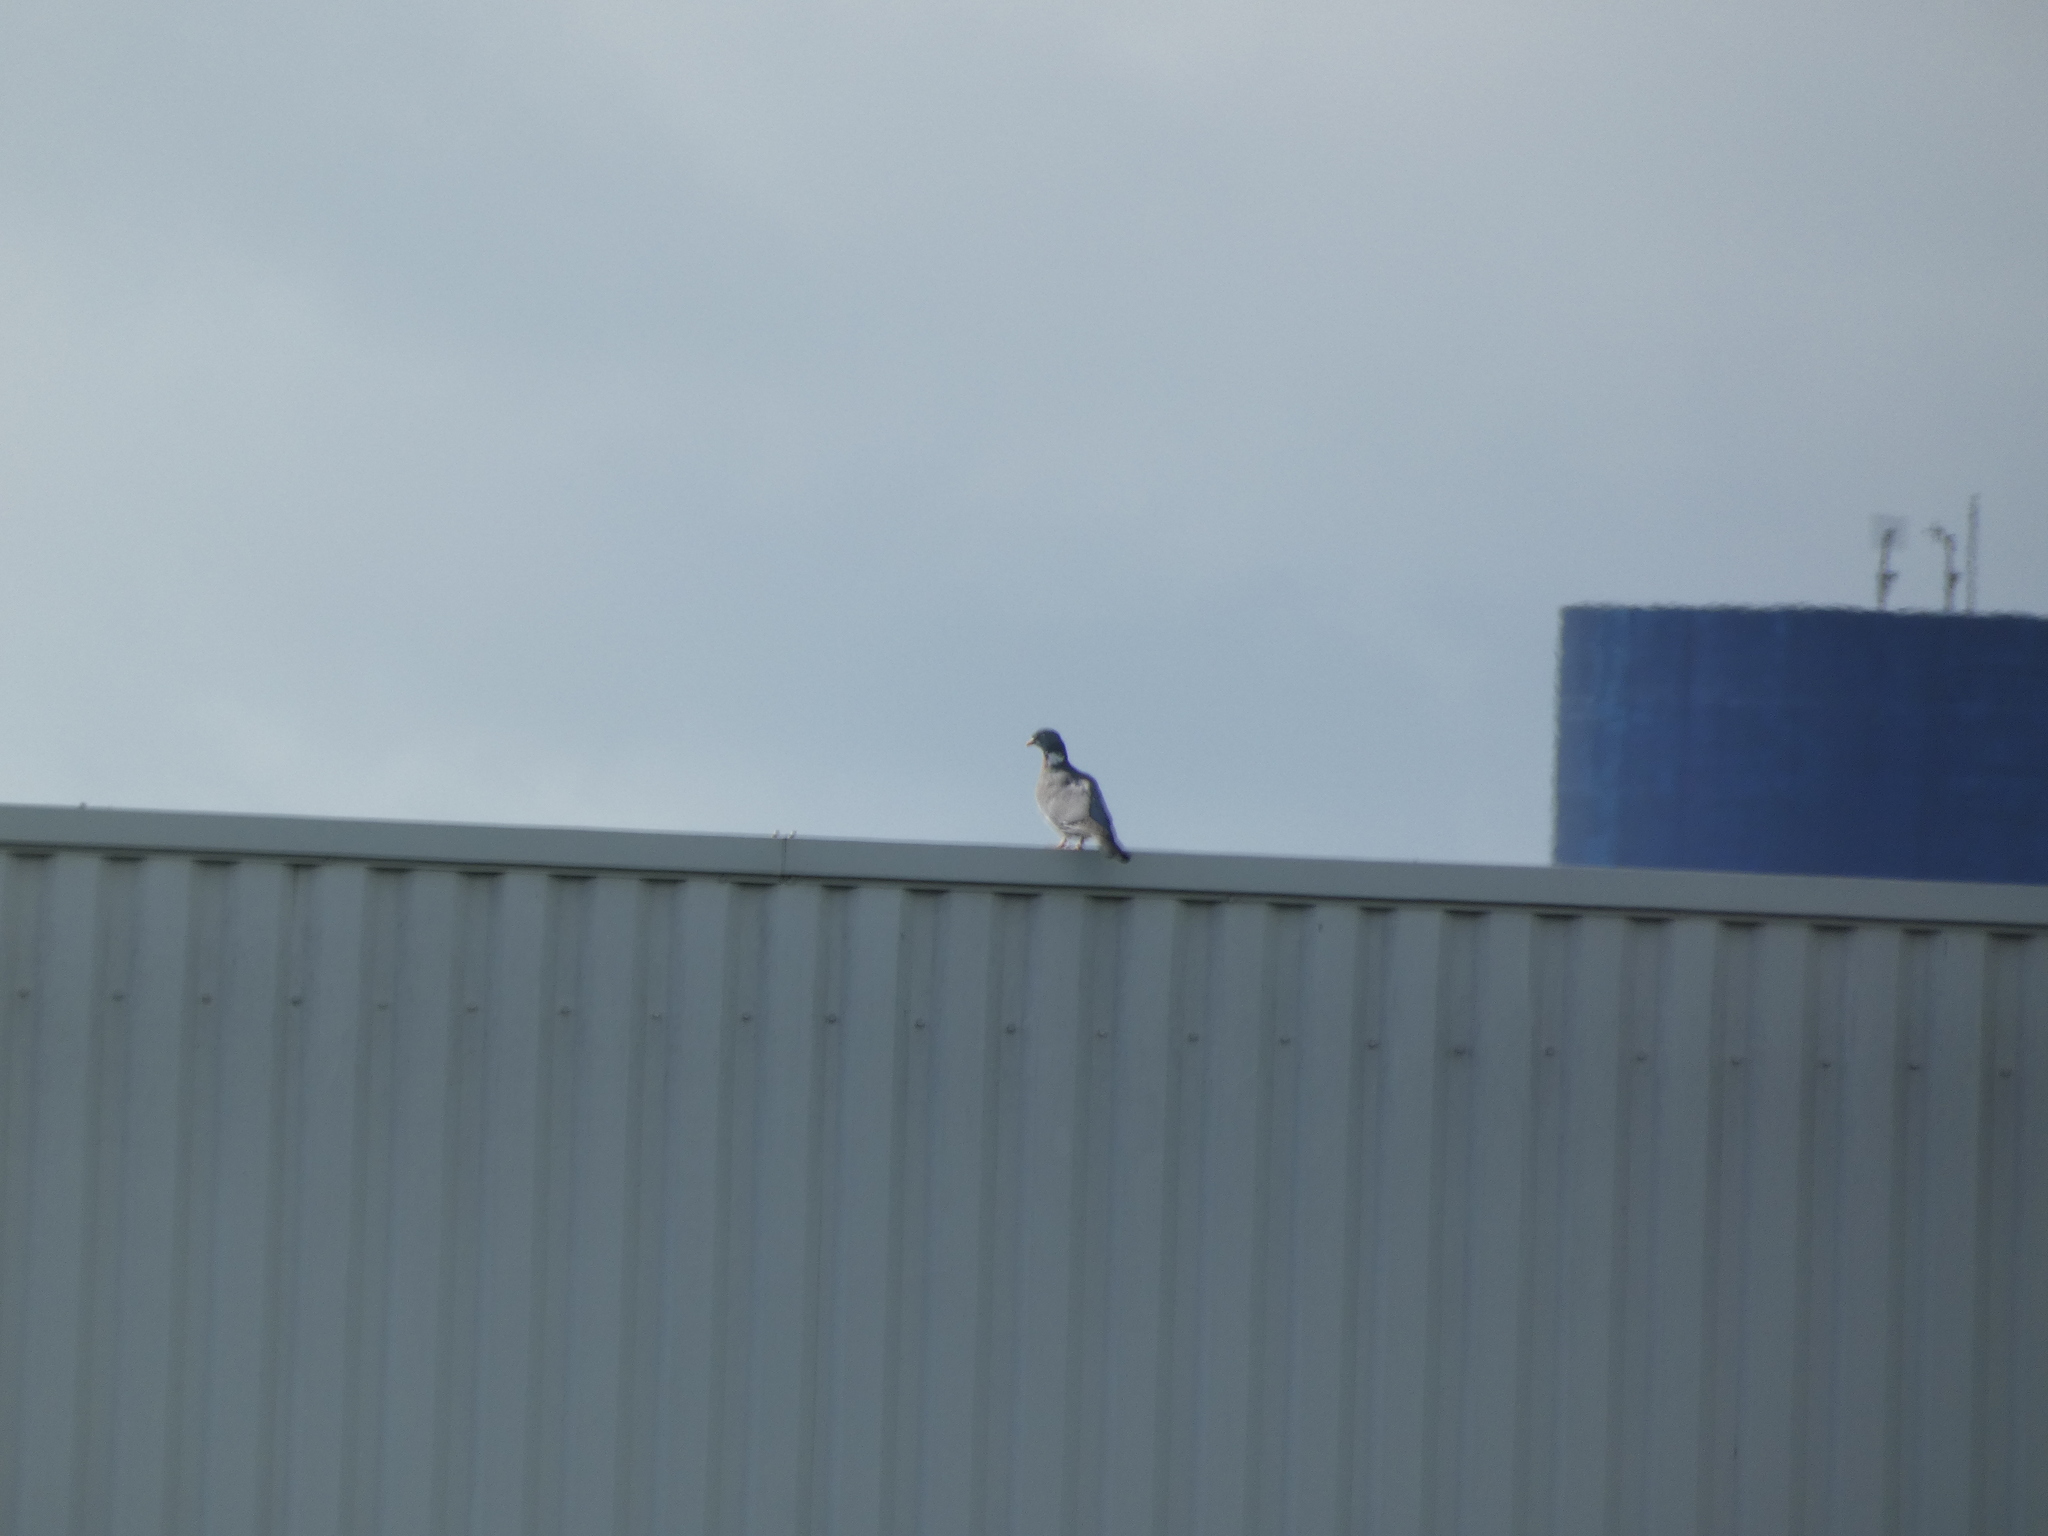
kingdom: Animalia
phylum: Chordata
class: Aves
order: Columbiformes
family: Columbidae
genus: Columba
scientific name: Columba palumbus
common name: Common wood pigeon
